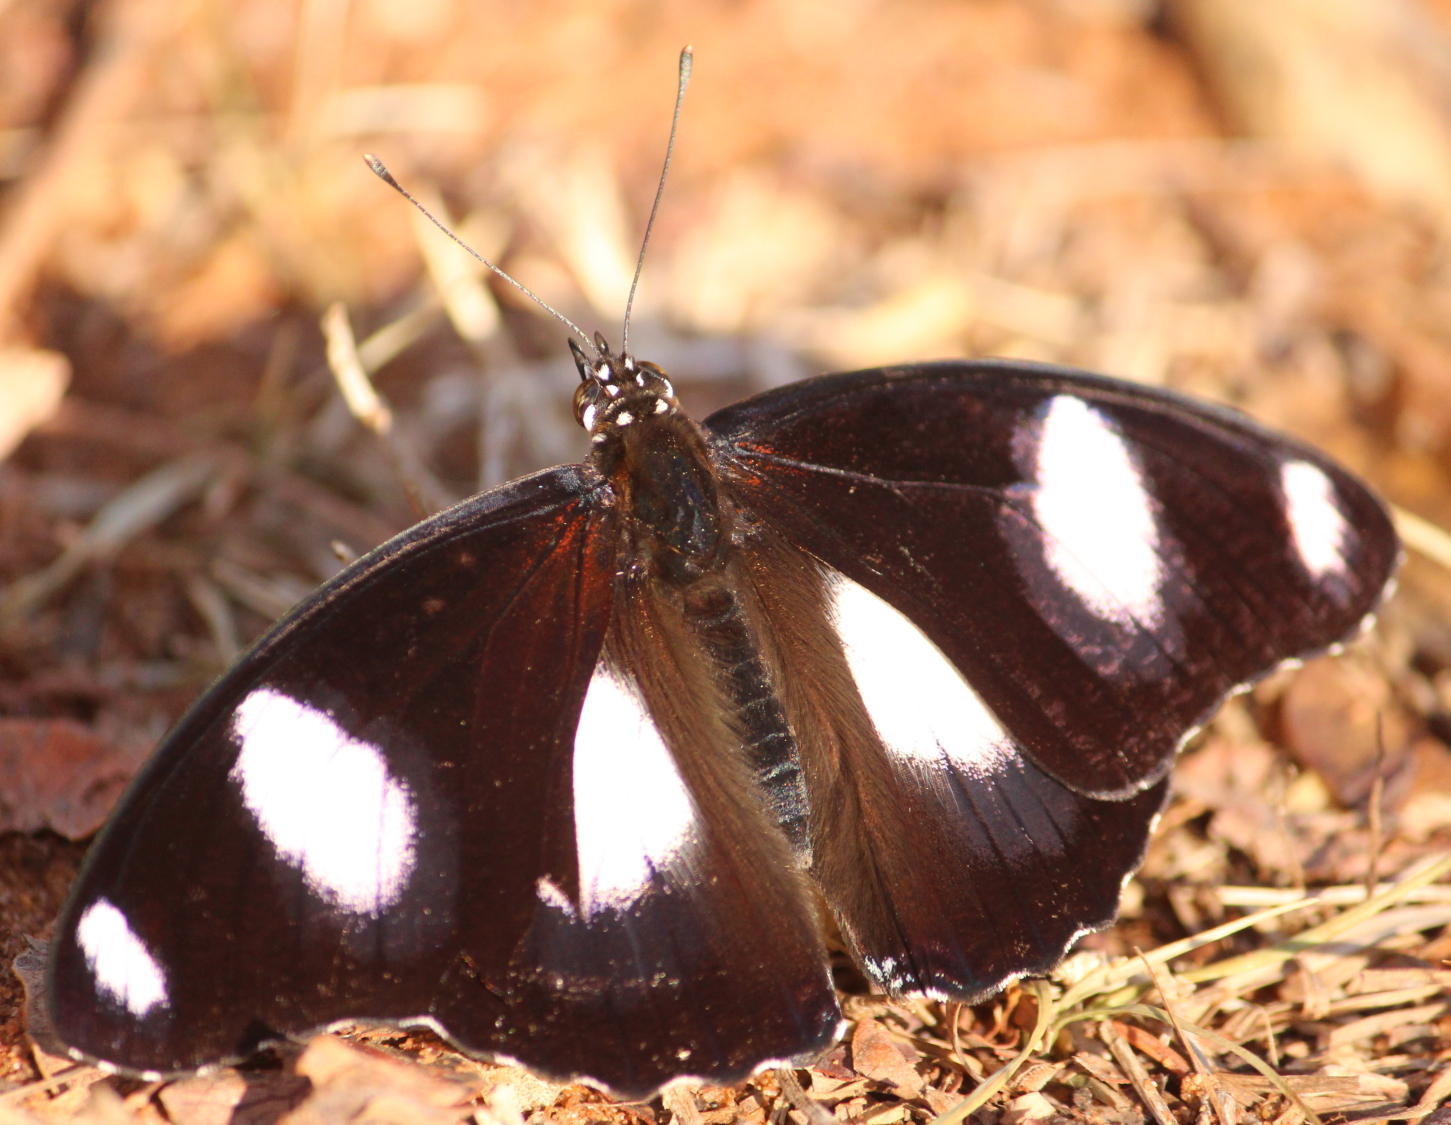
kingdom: Animalia
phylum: Arthropoda
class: Insecta
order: Lepidoptera
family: Nymphalidae
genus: Hypolimnas
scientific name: Hypolimnas misippus
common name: False plain tiger
